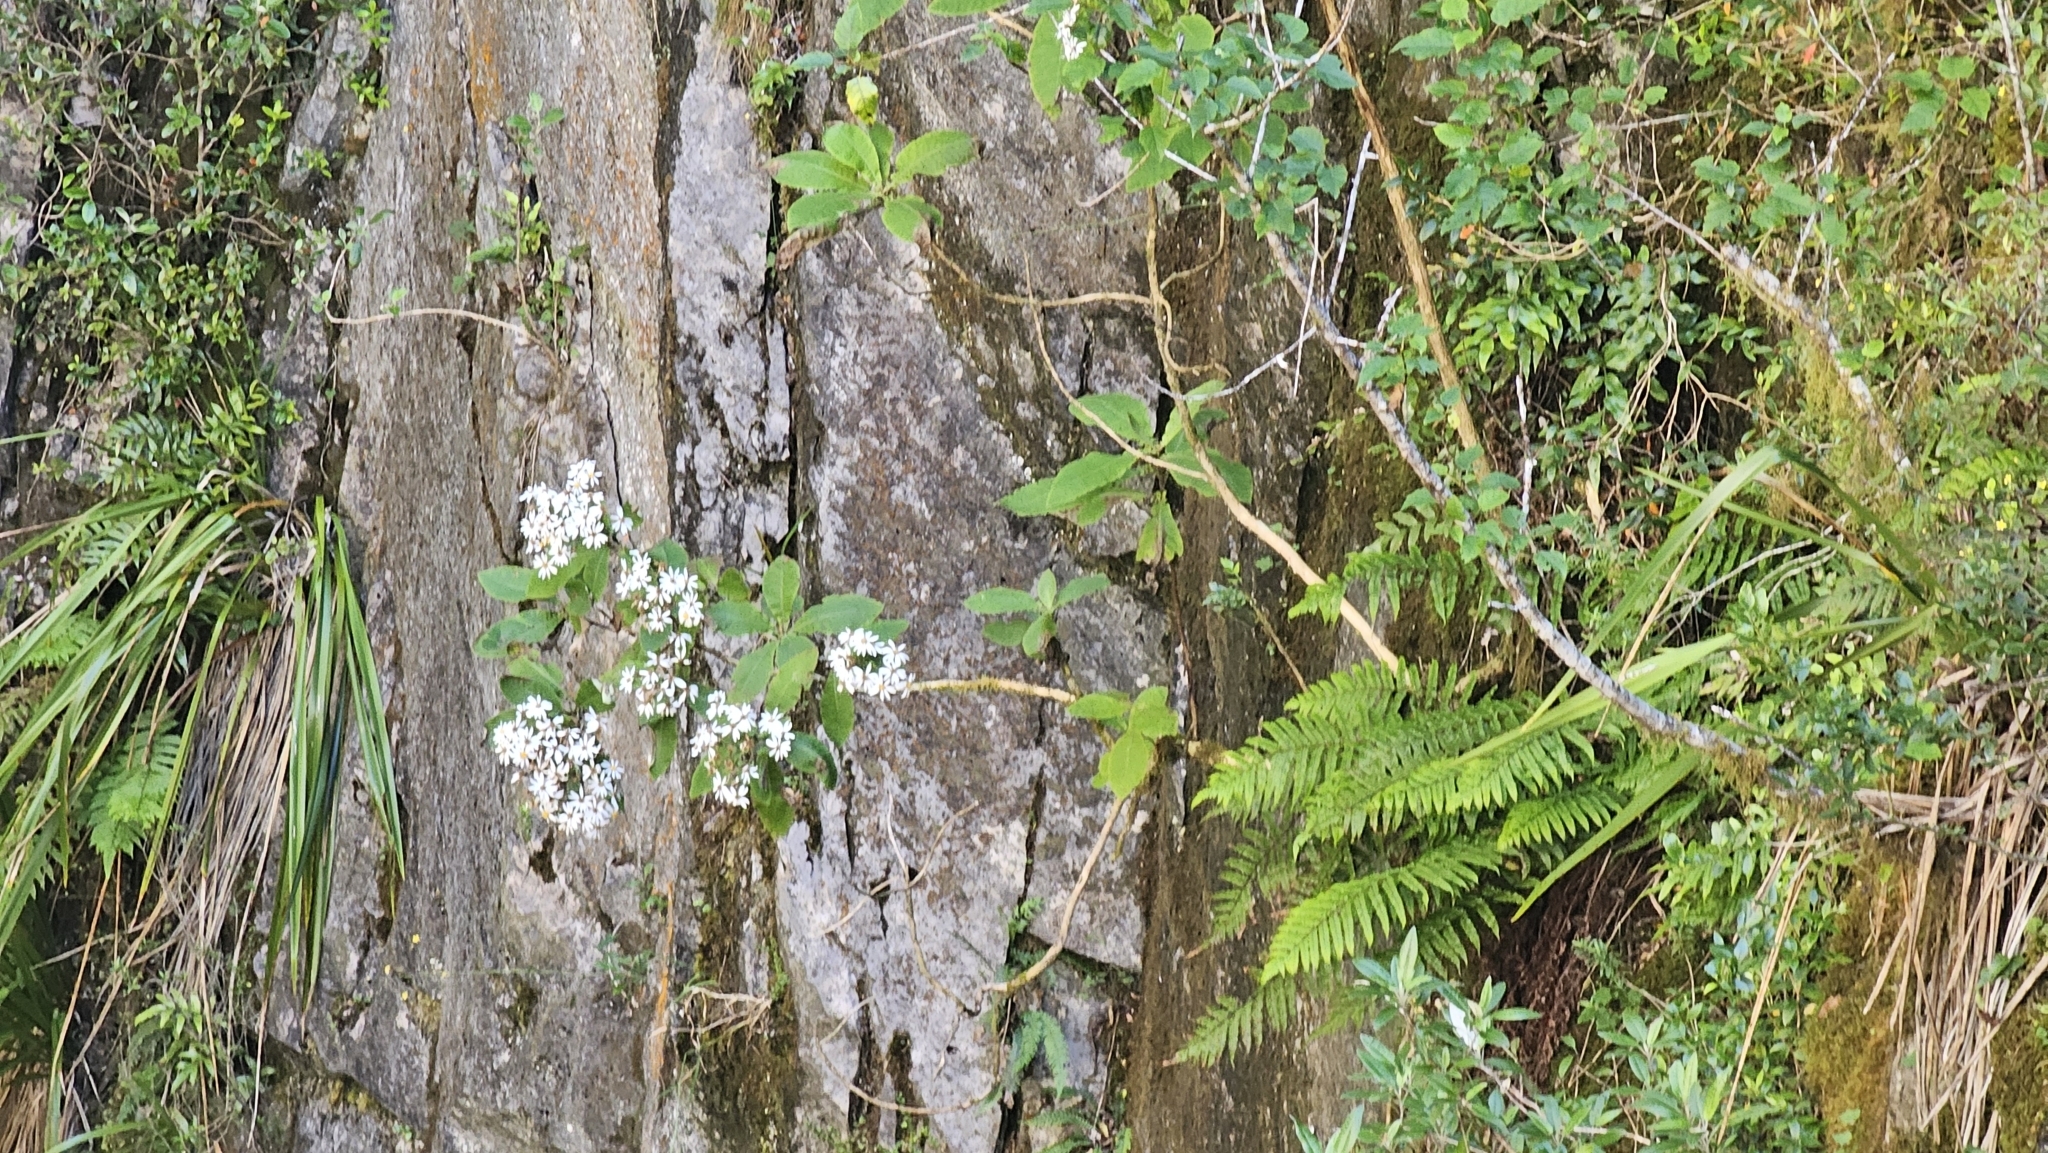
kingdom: Plantae
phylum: Tracheophyta
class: Magnoliopsida
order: Asterales
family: Asteraceae
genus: Brachyglottis
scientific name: Brachyglottis hectorii
